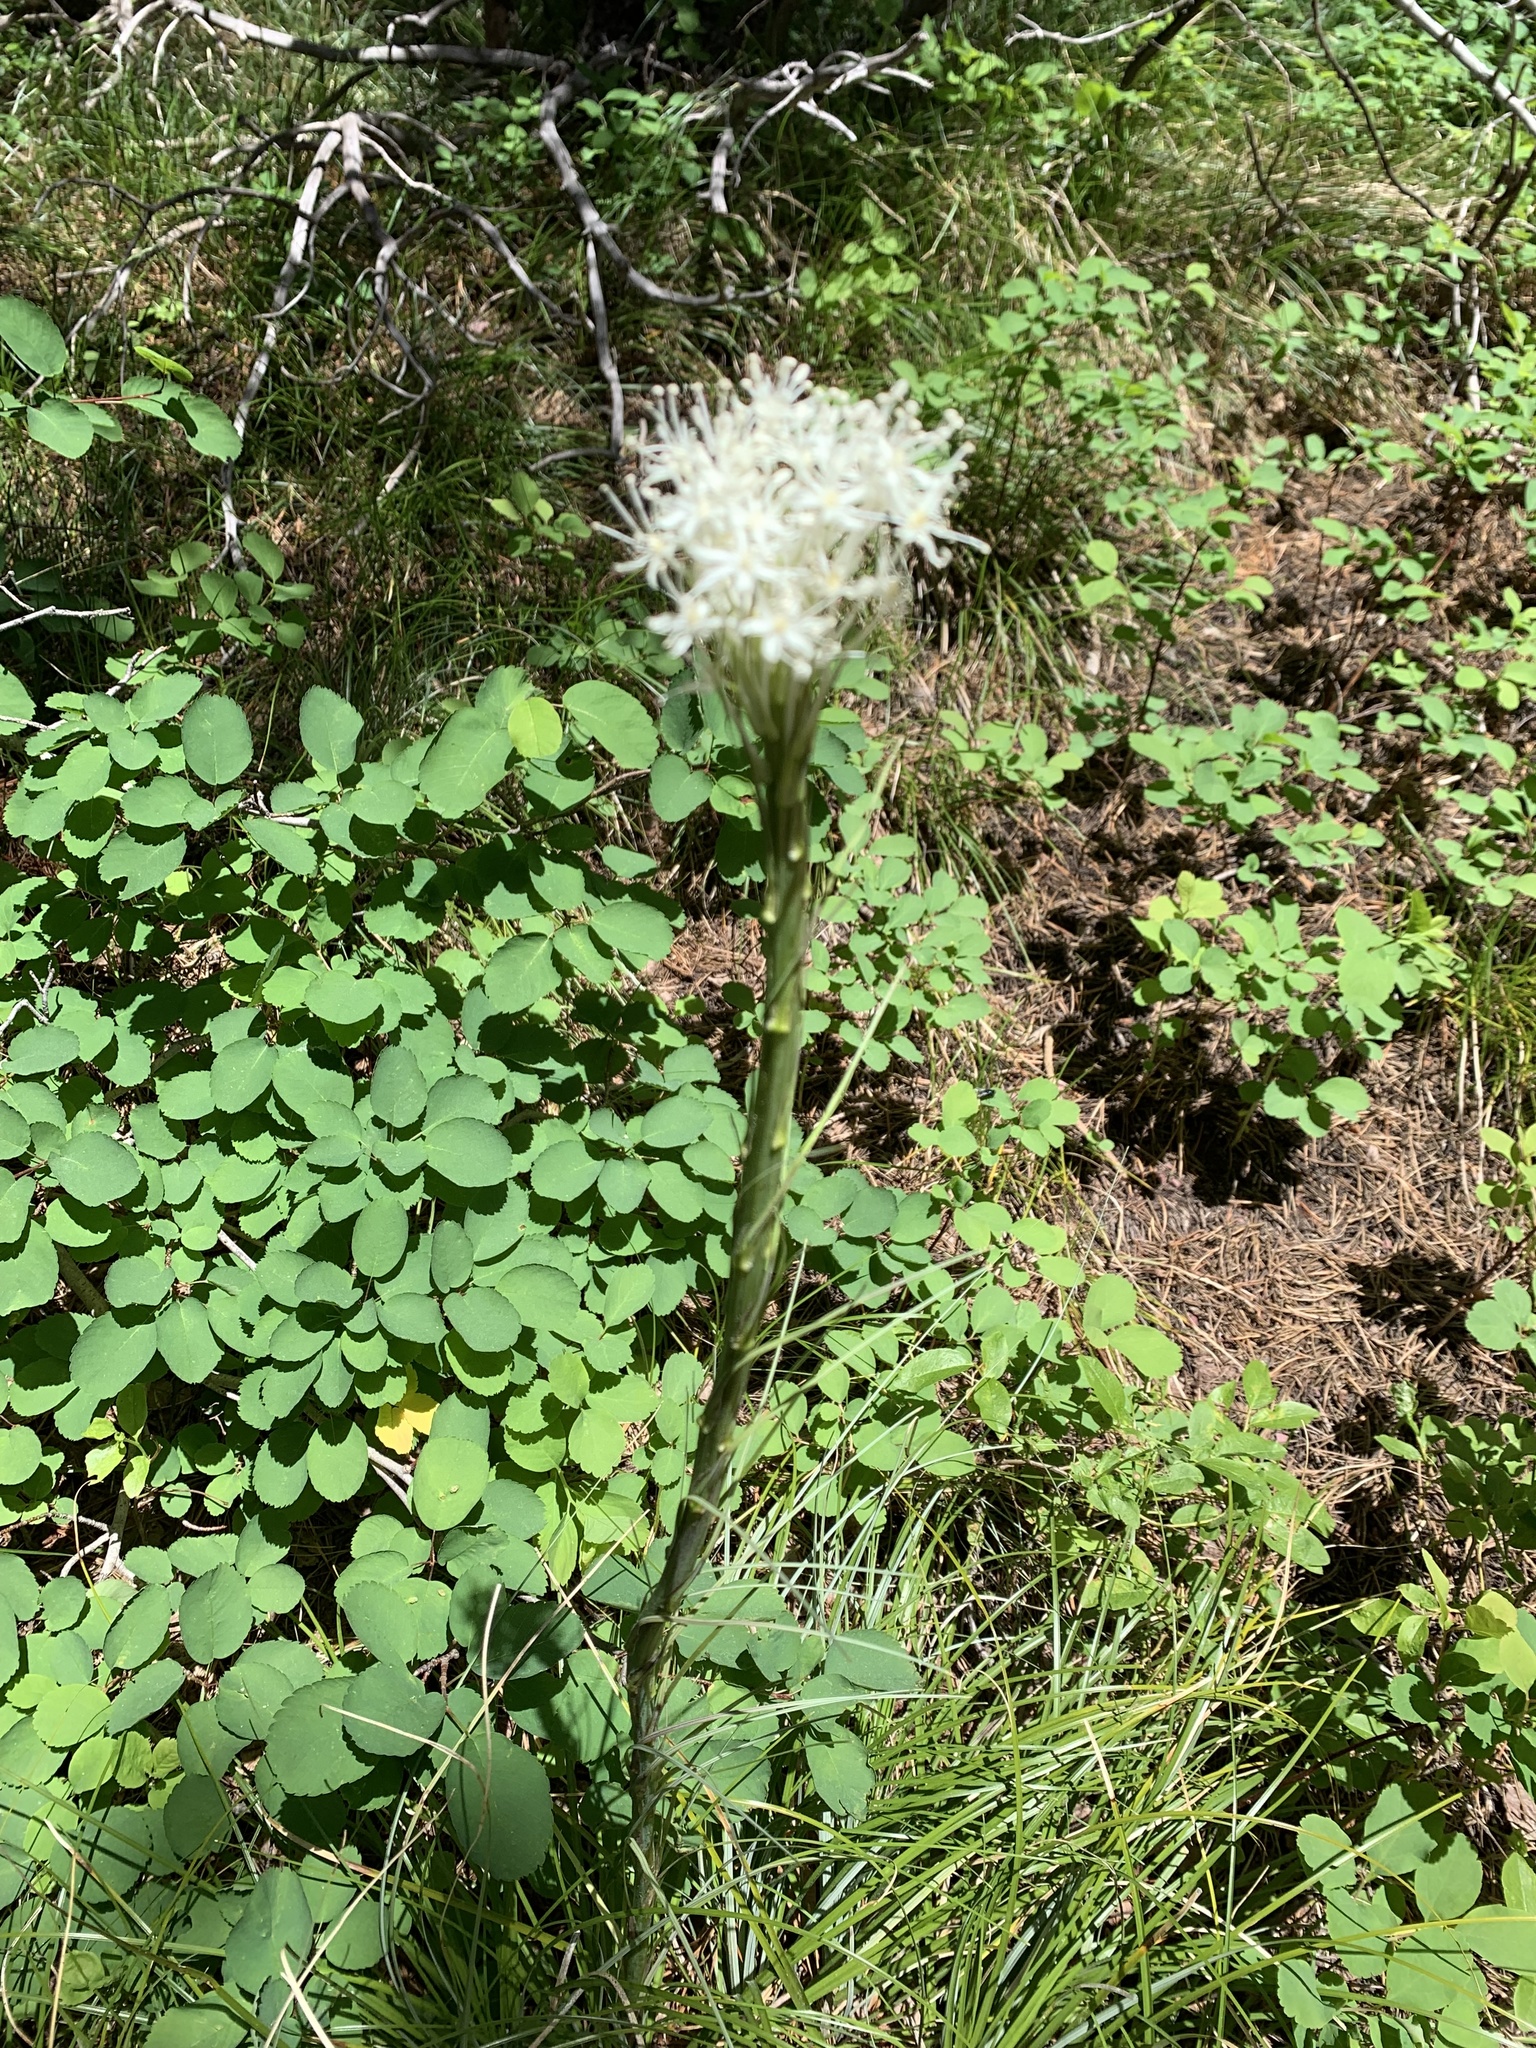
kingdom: Plantae
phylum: Tracheophyta
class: Liliopsida
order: Liliales
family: Melanthiaceae
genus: Xerophyllum
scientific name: Xerophyllum tenax
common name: Bear-grass
